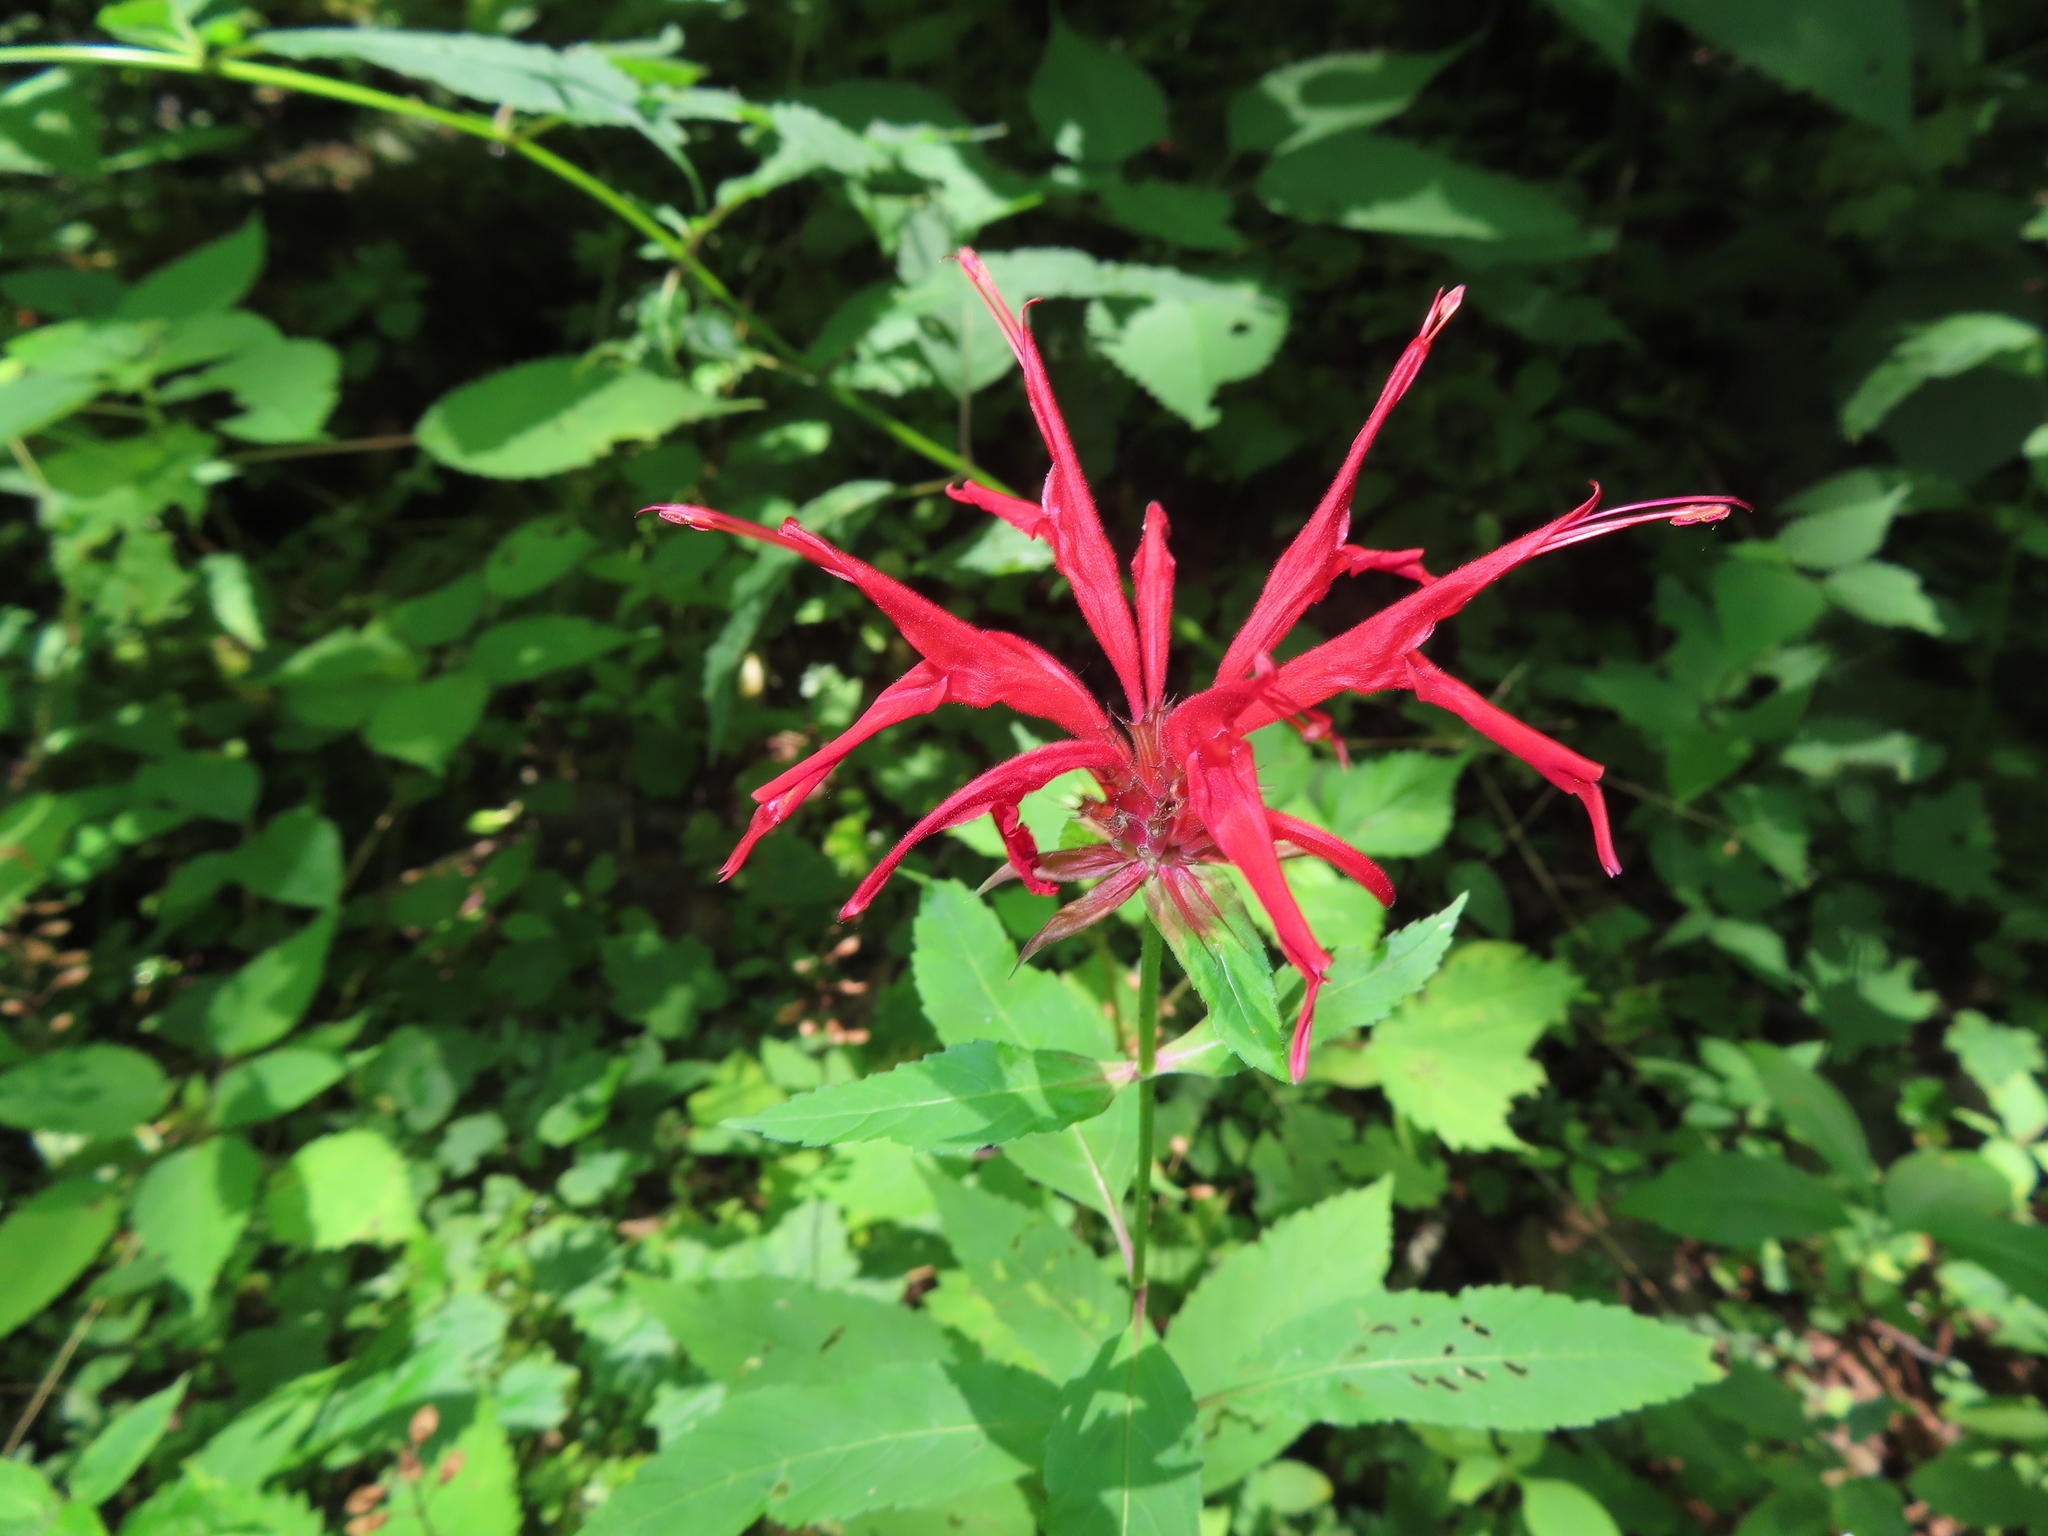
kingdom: Plantae
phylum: Tracheophyta
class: Magnoliopsida
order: Lamiales
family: Lamiaceae
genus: Monarda
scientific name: Monarda didyma
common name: Beebalm
